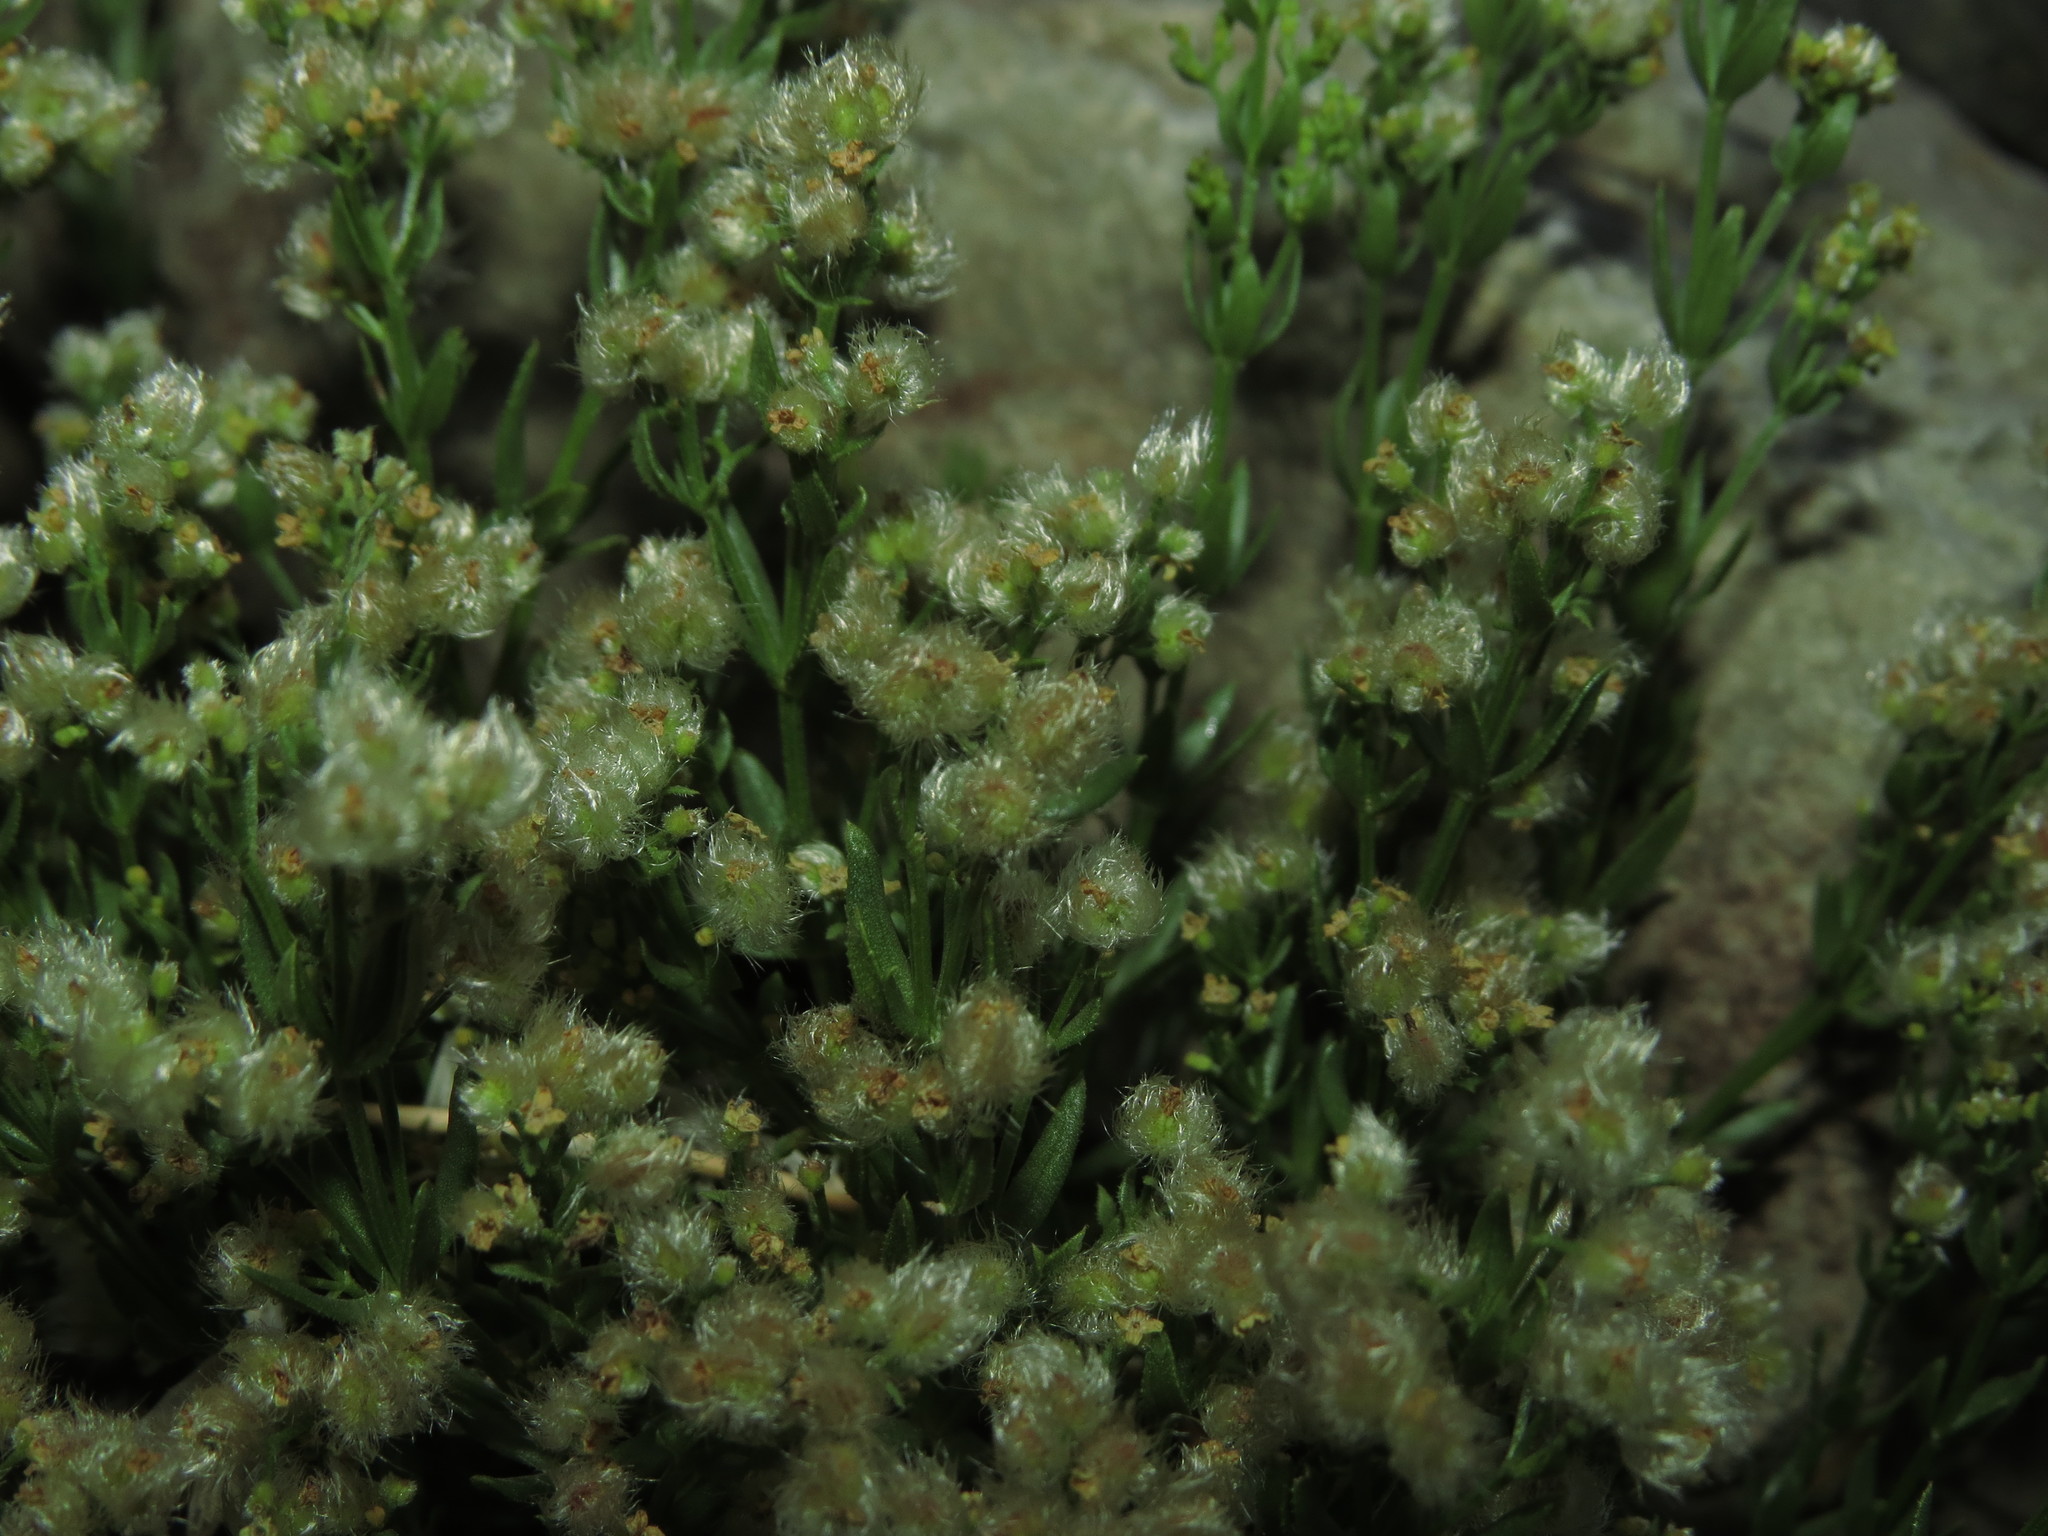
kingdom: Plantae
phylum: Tracheophyta
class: Magnoliopsida
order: Gentianales
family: Rubiaceae
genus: Galium
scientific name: Galium eriocarpum
